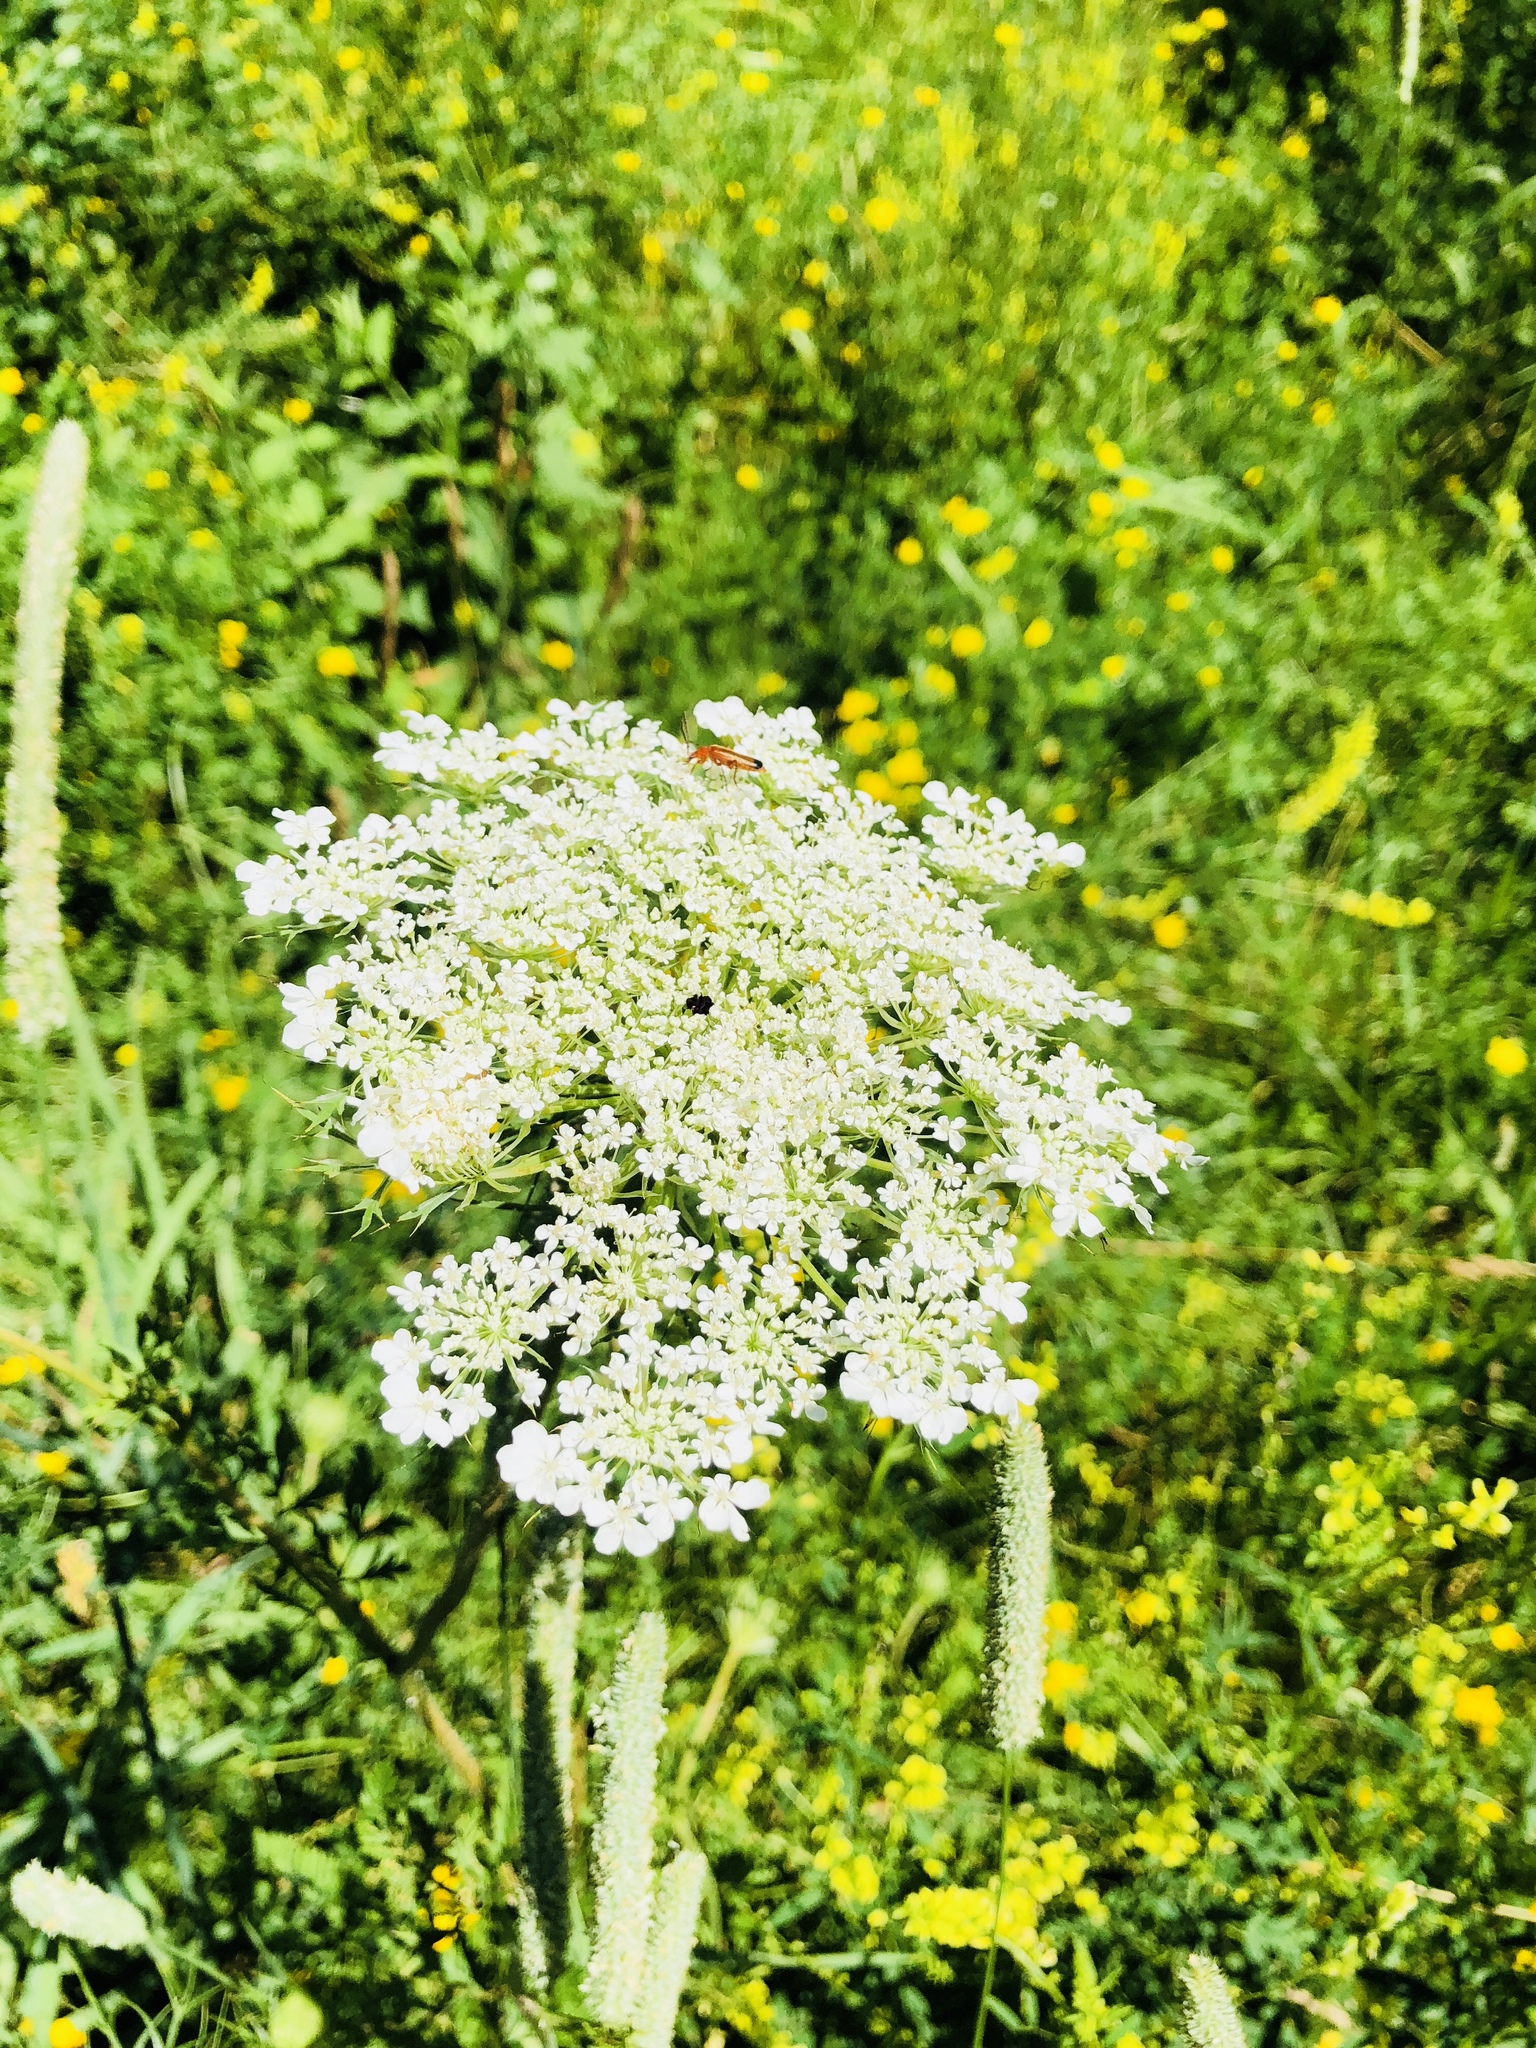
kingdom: Plantae
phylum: Tracheophyta
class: Magnoliopsida
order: Apiales
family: Apiaceae
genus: Daucus
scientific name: Daucus carota
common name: Wild carrot
